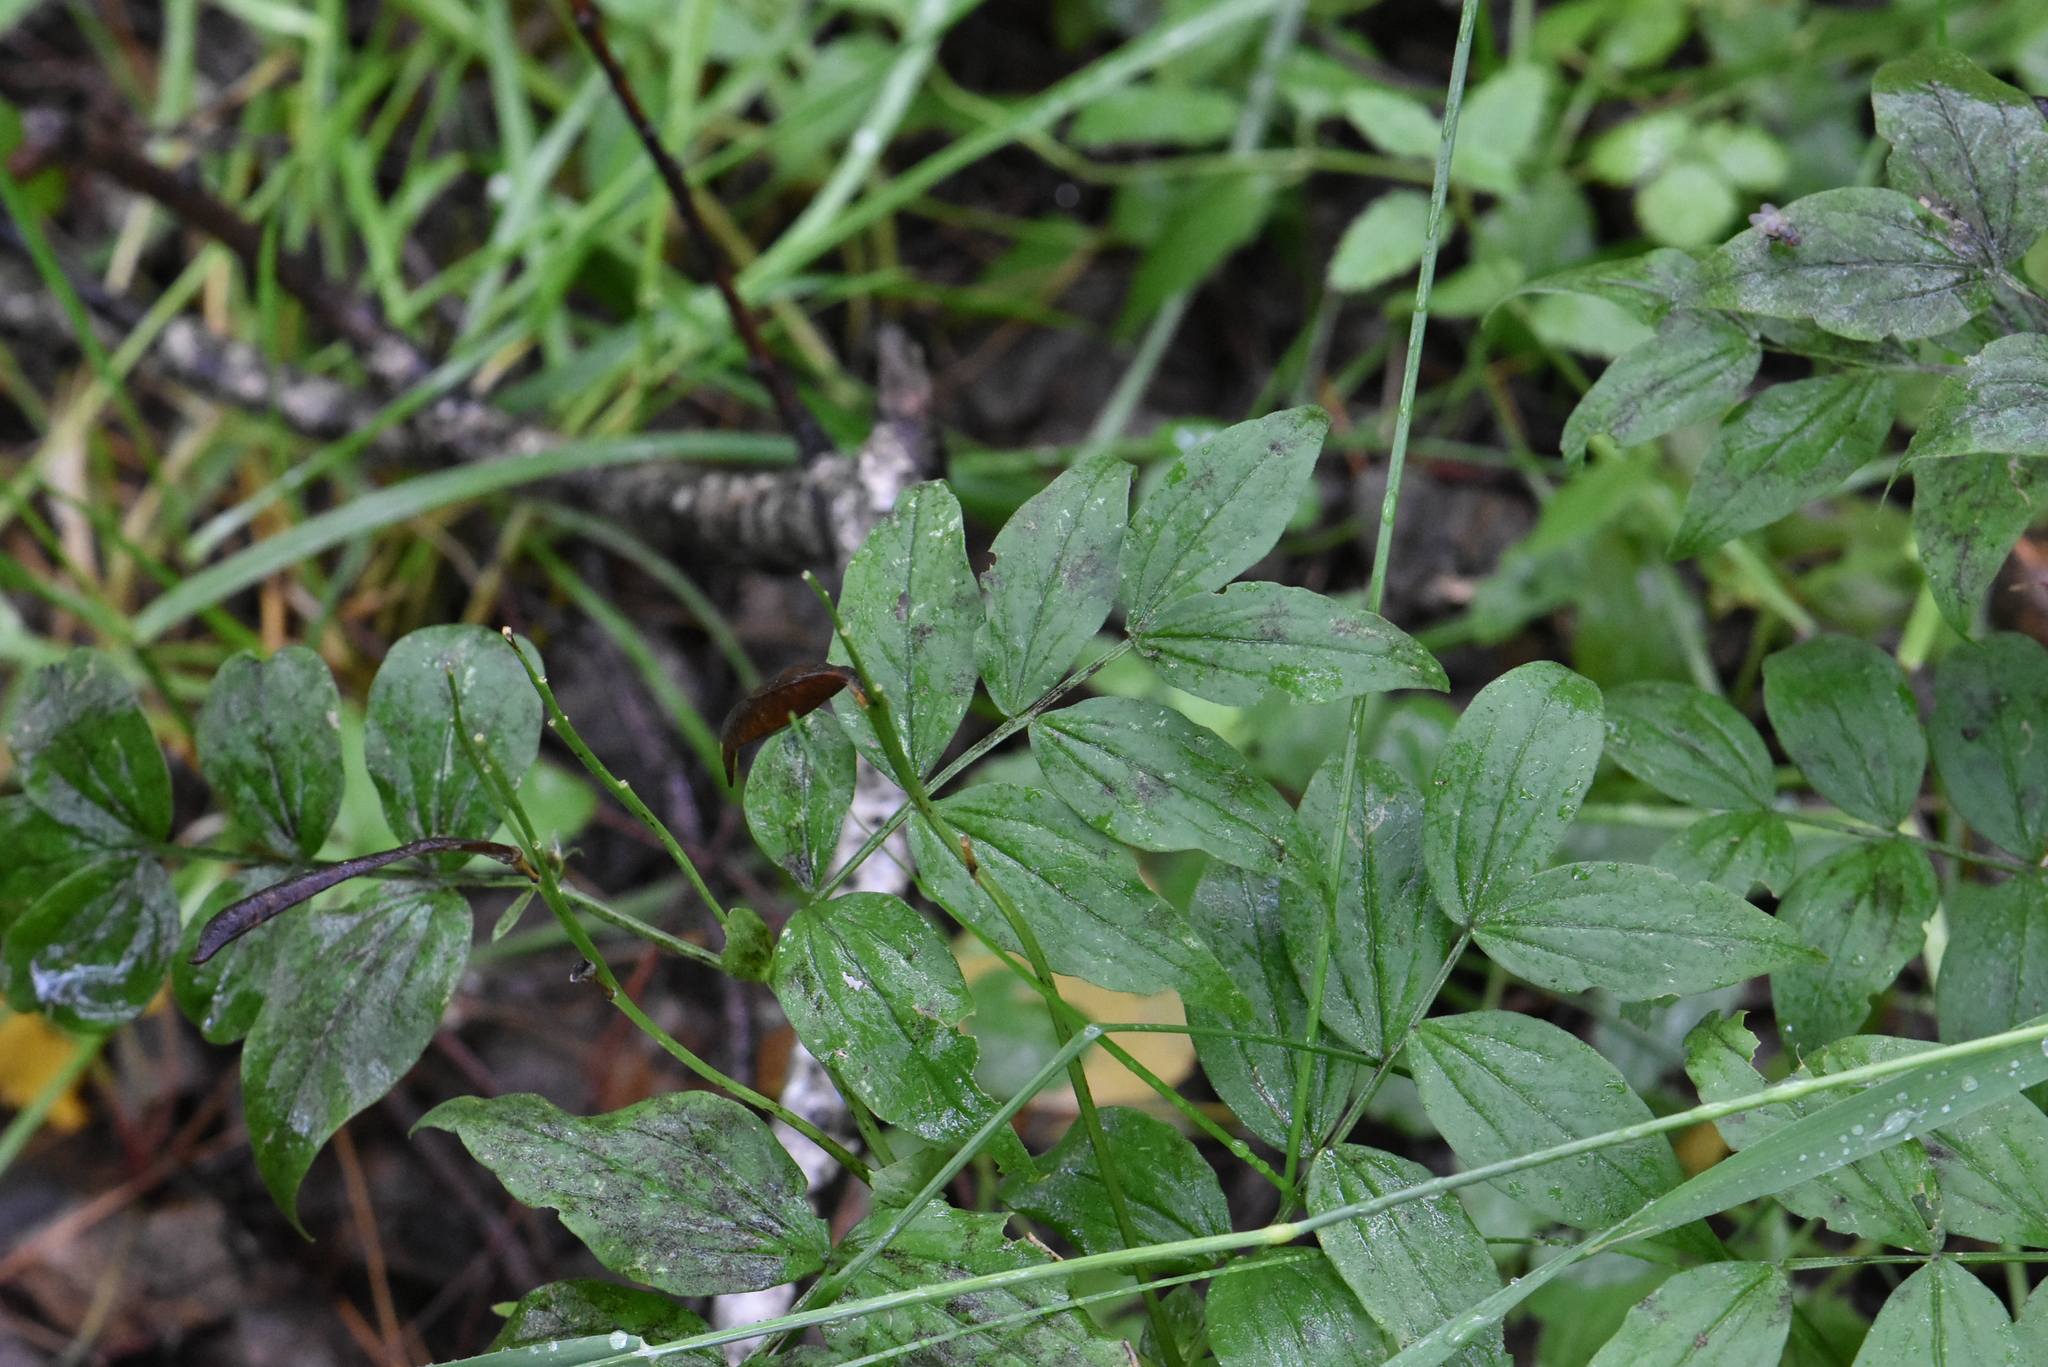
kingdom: Plantae
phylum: Tracheophyta
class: Magnoliopsida
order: Fabales
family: Fabaceae
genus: Lathyrus
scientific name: Lathyrus vernus
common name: Spring pea
